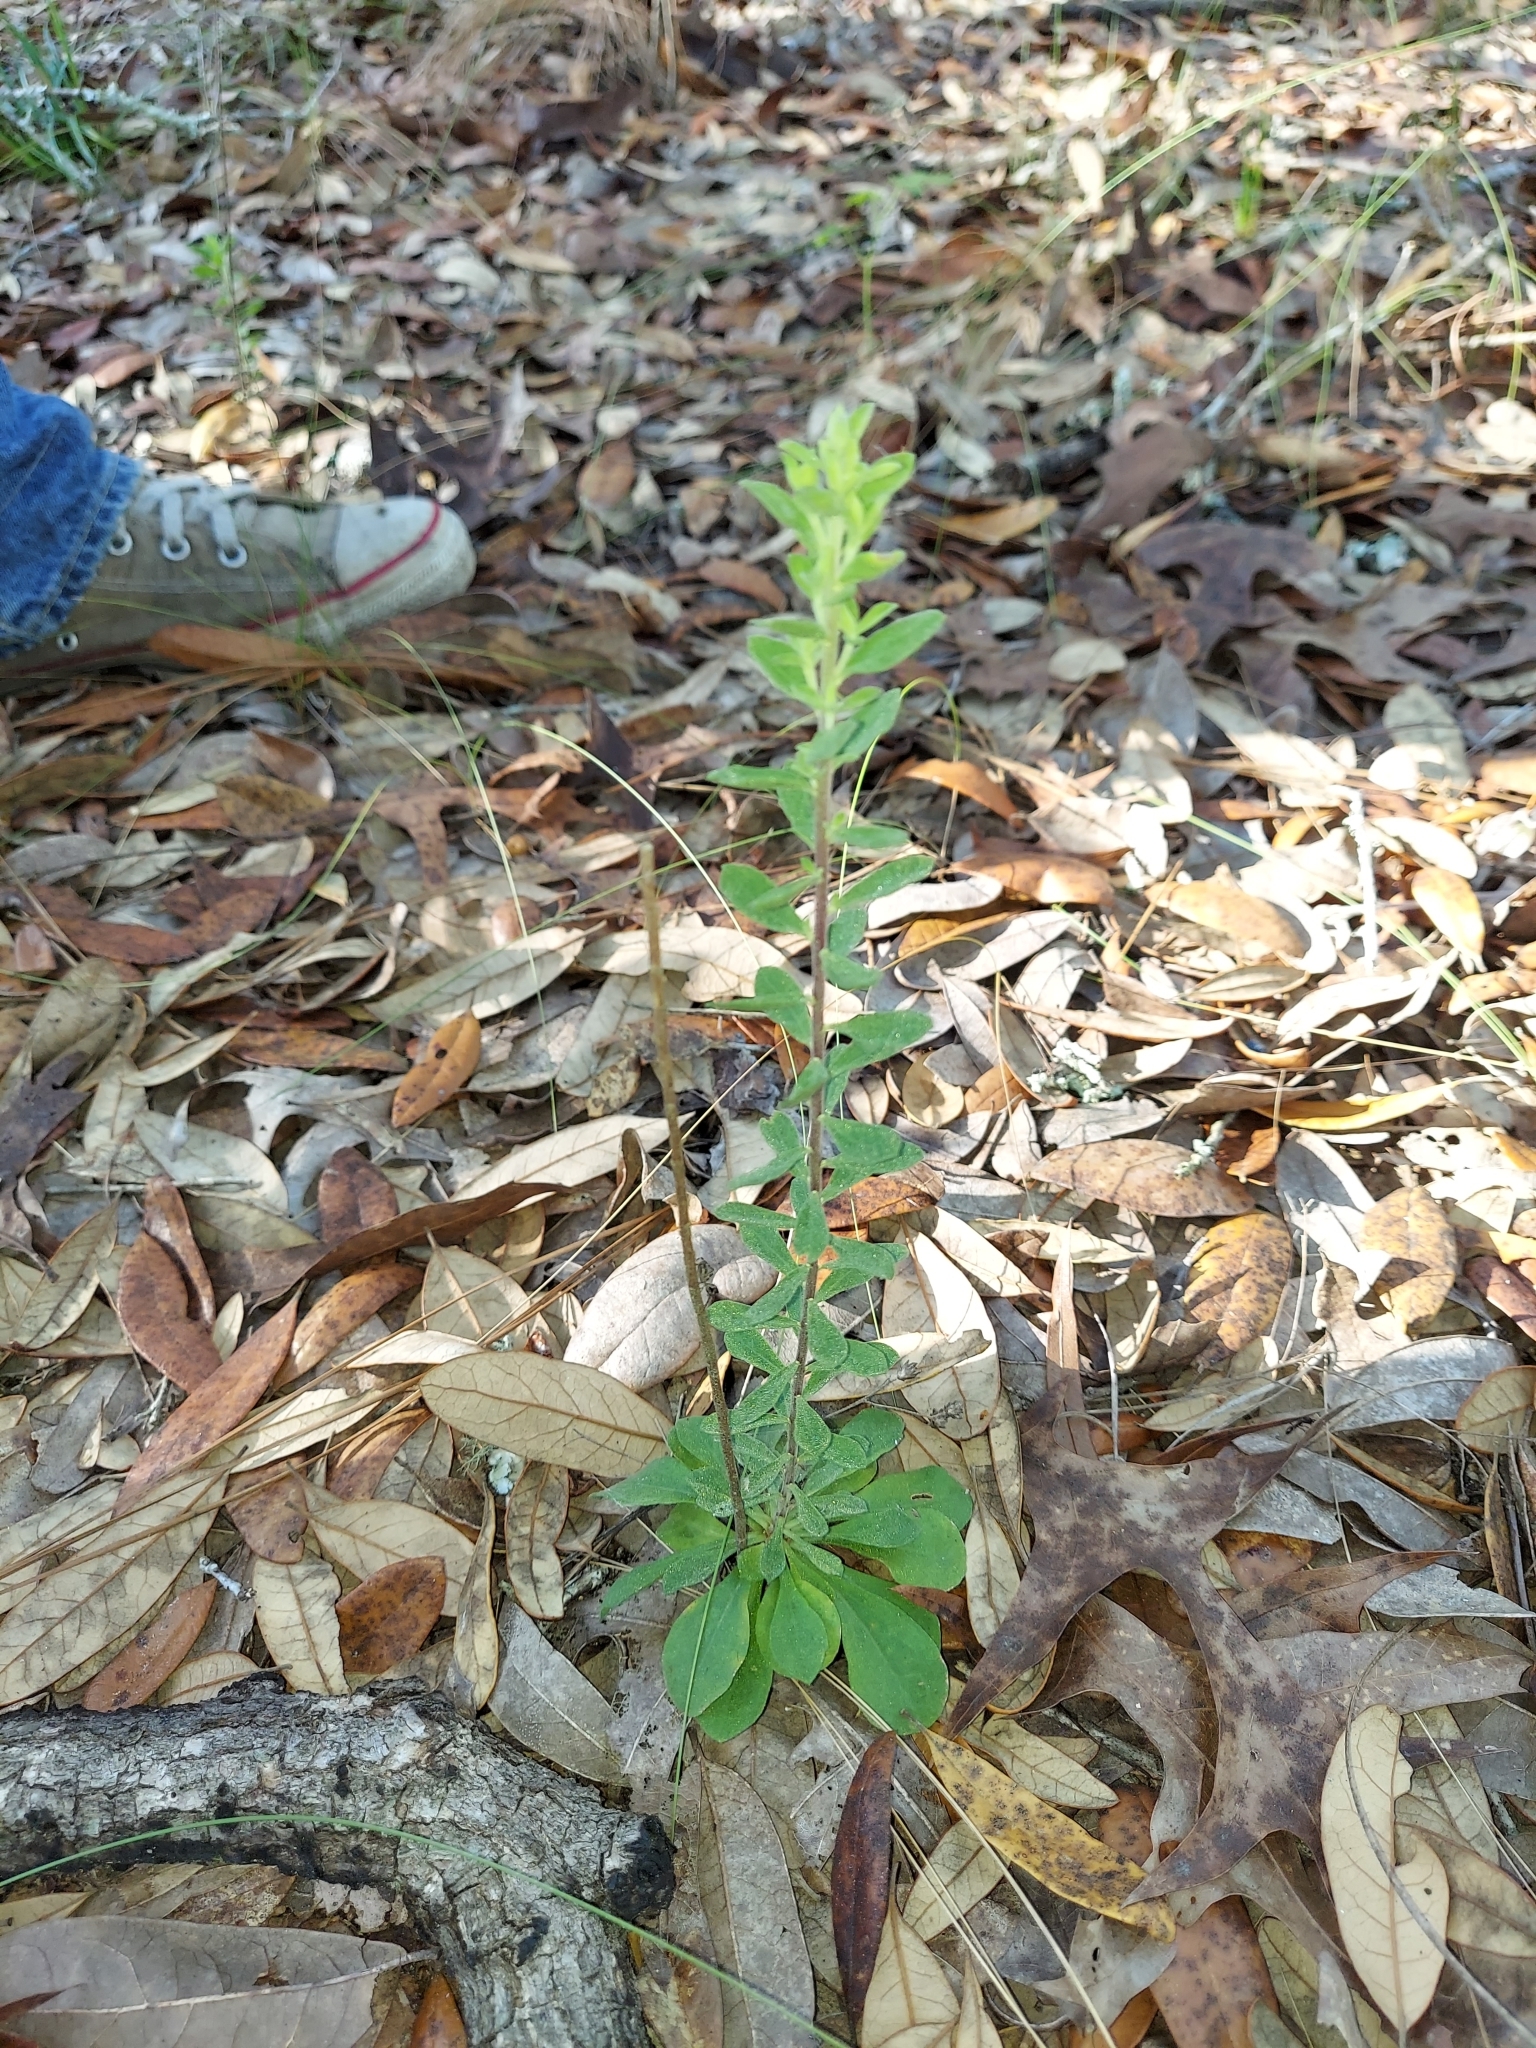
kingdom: Plantae
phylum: Tracheophyta
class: Magnoliopsida
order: Asterales
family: Asteraceae
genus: Sericocarpus
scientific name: Sericocarpus tortifolius
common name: Dixie aster
